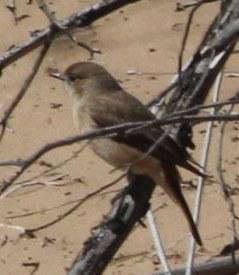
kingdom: Animalia
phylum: Chordata
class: Aves
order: Passeriformes
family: Muscicapidae
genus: Oenanthe
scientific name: Oenanthe familiaris
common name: Familiar chat
